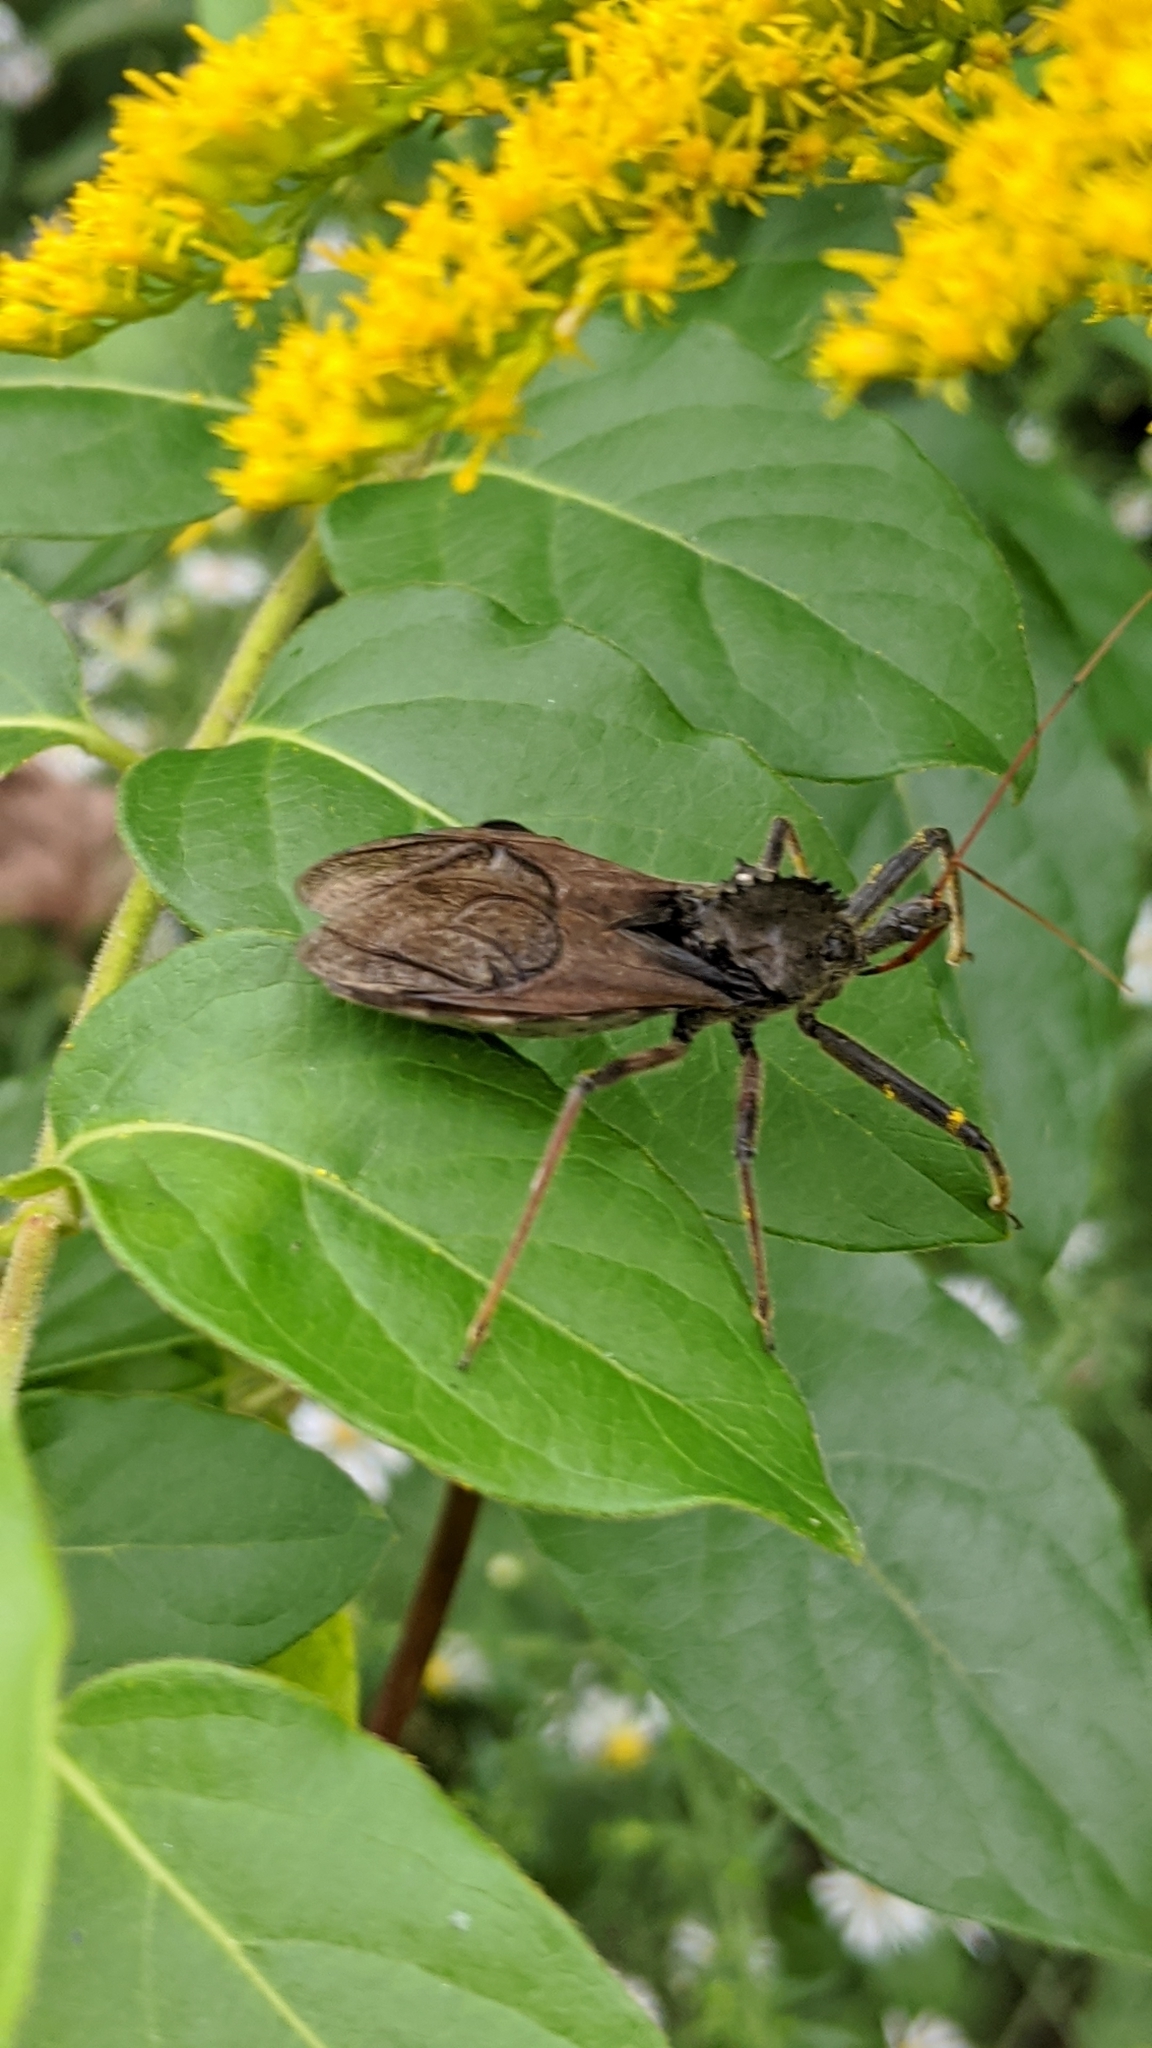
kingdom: Animalia
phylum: Arthropoda
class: Insecta
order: Hemiptera
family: Reduviidae
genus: Arilus
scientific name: Arilus cristatus
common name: North american wheel bug
